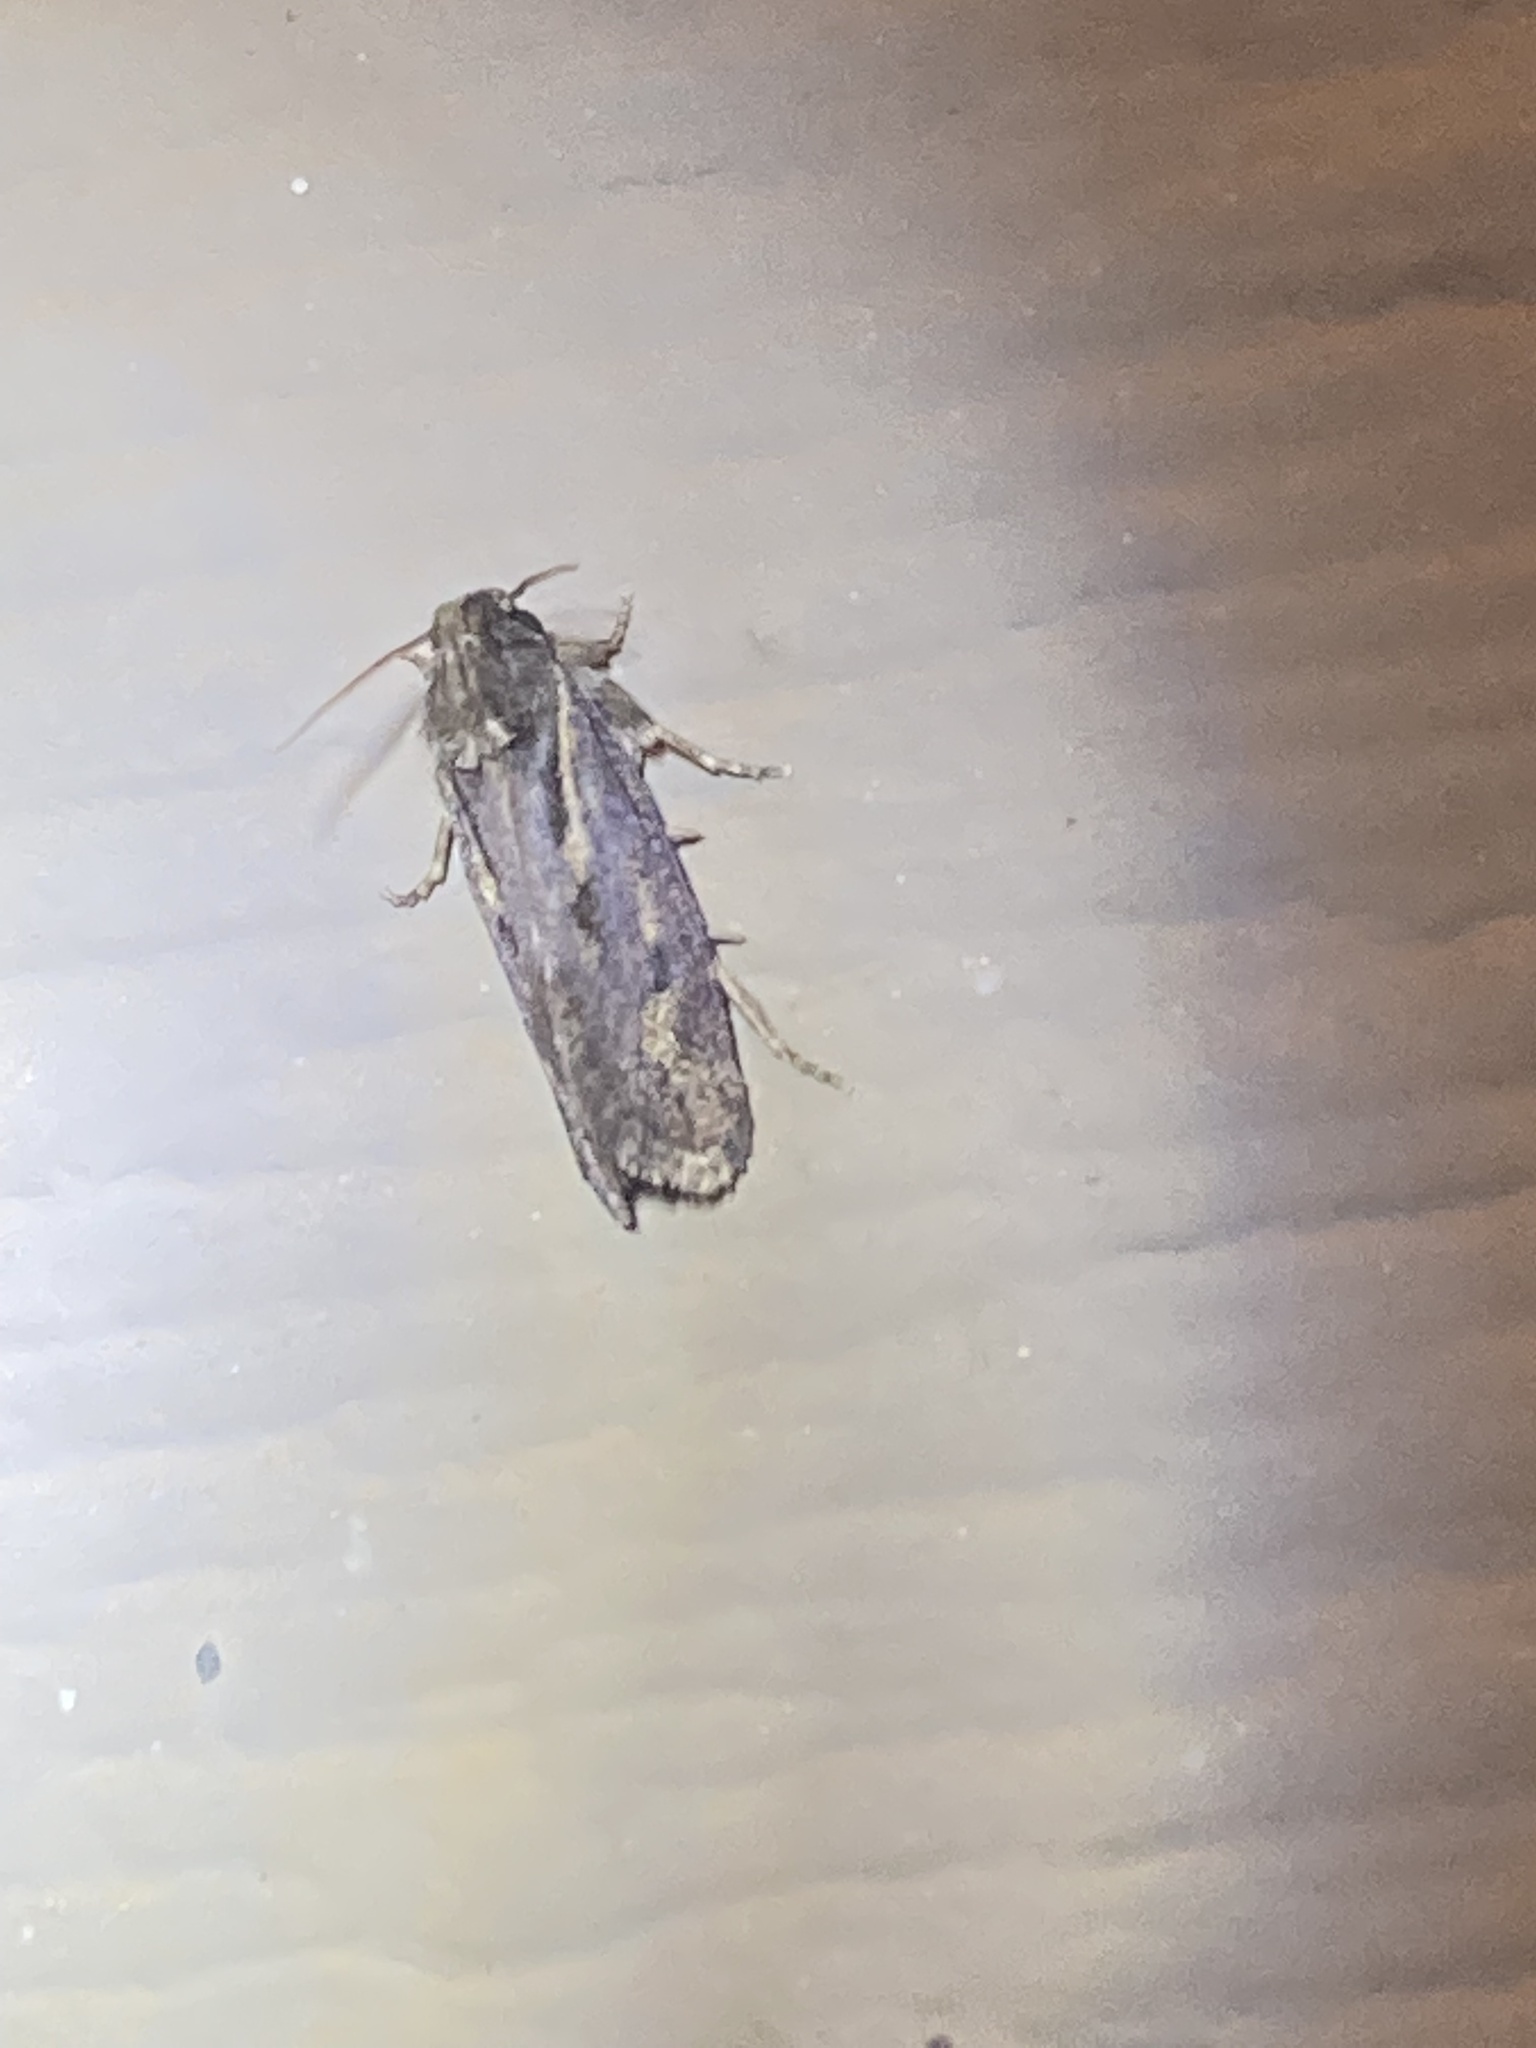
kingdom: Animalia
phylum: Arthropoda
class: Insecta
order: Lepidoptera
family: Tineidae
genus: Acrolophus
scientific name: Acrolophus popeanella
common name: Clemens' grass tubeworm moth
